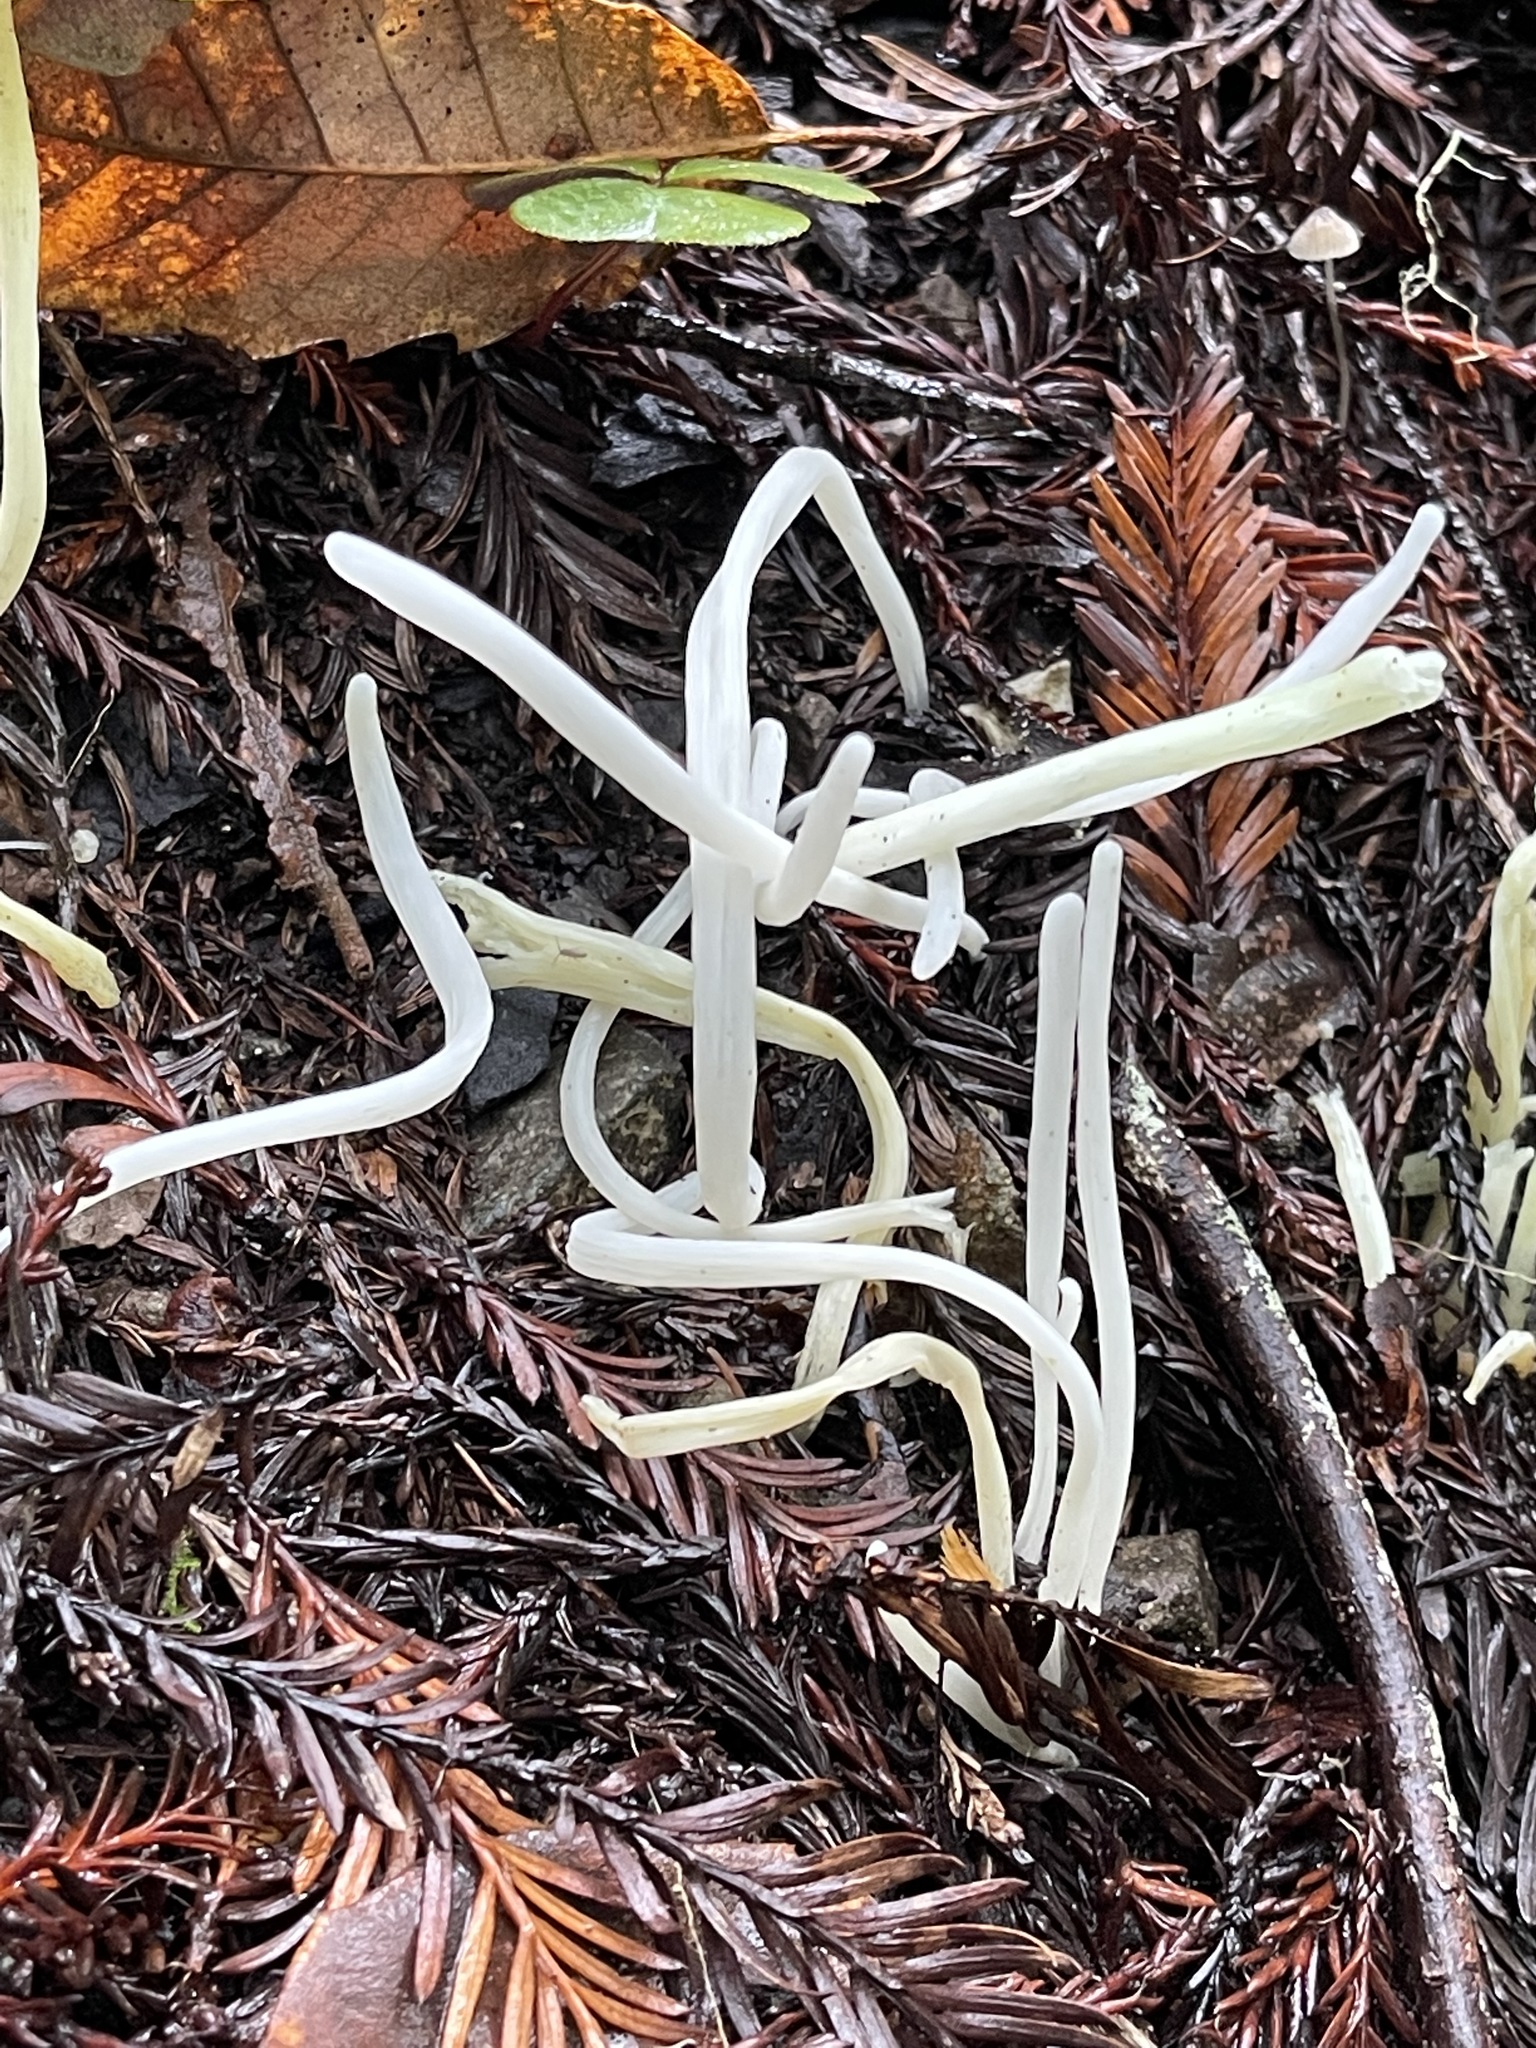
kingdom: Fungi
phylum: Basidiomycota
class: Agaricomycetes
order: Agaricales
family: Clavariaceae
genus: Clavaria
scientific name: Clavaria fragilis
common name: White spindles
